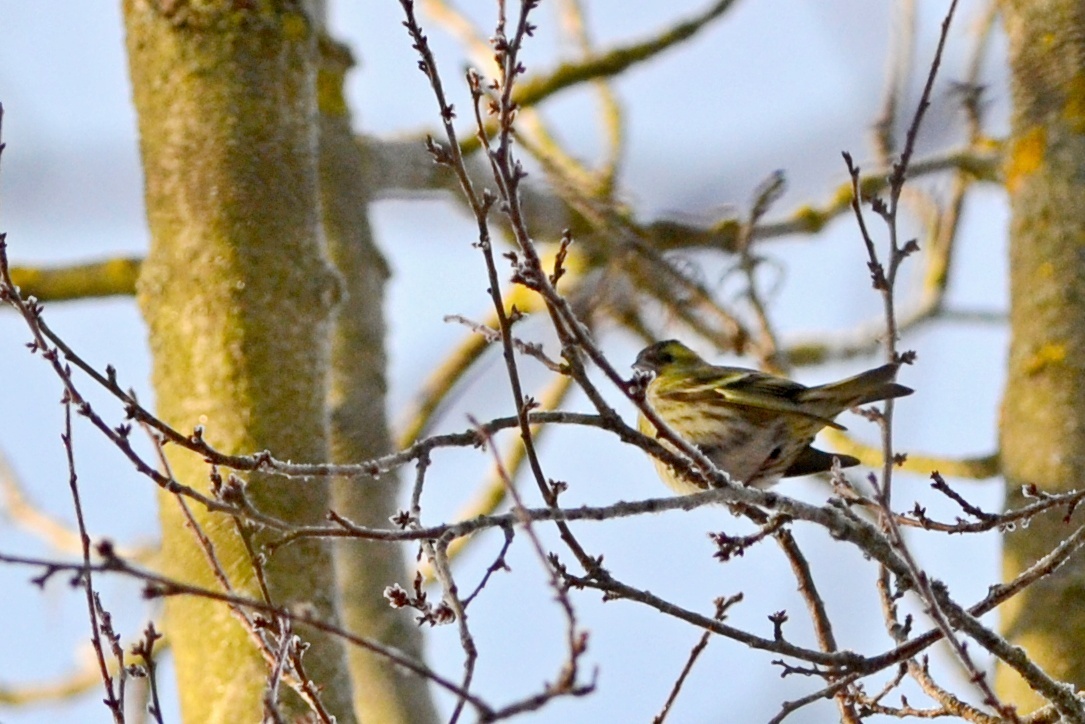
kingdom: Animalia
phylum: Chordata
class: Aves
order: Passeriformes
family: Fringillidae
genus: Spinus
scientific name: Spinus spinus
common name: Eurasian siskin
